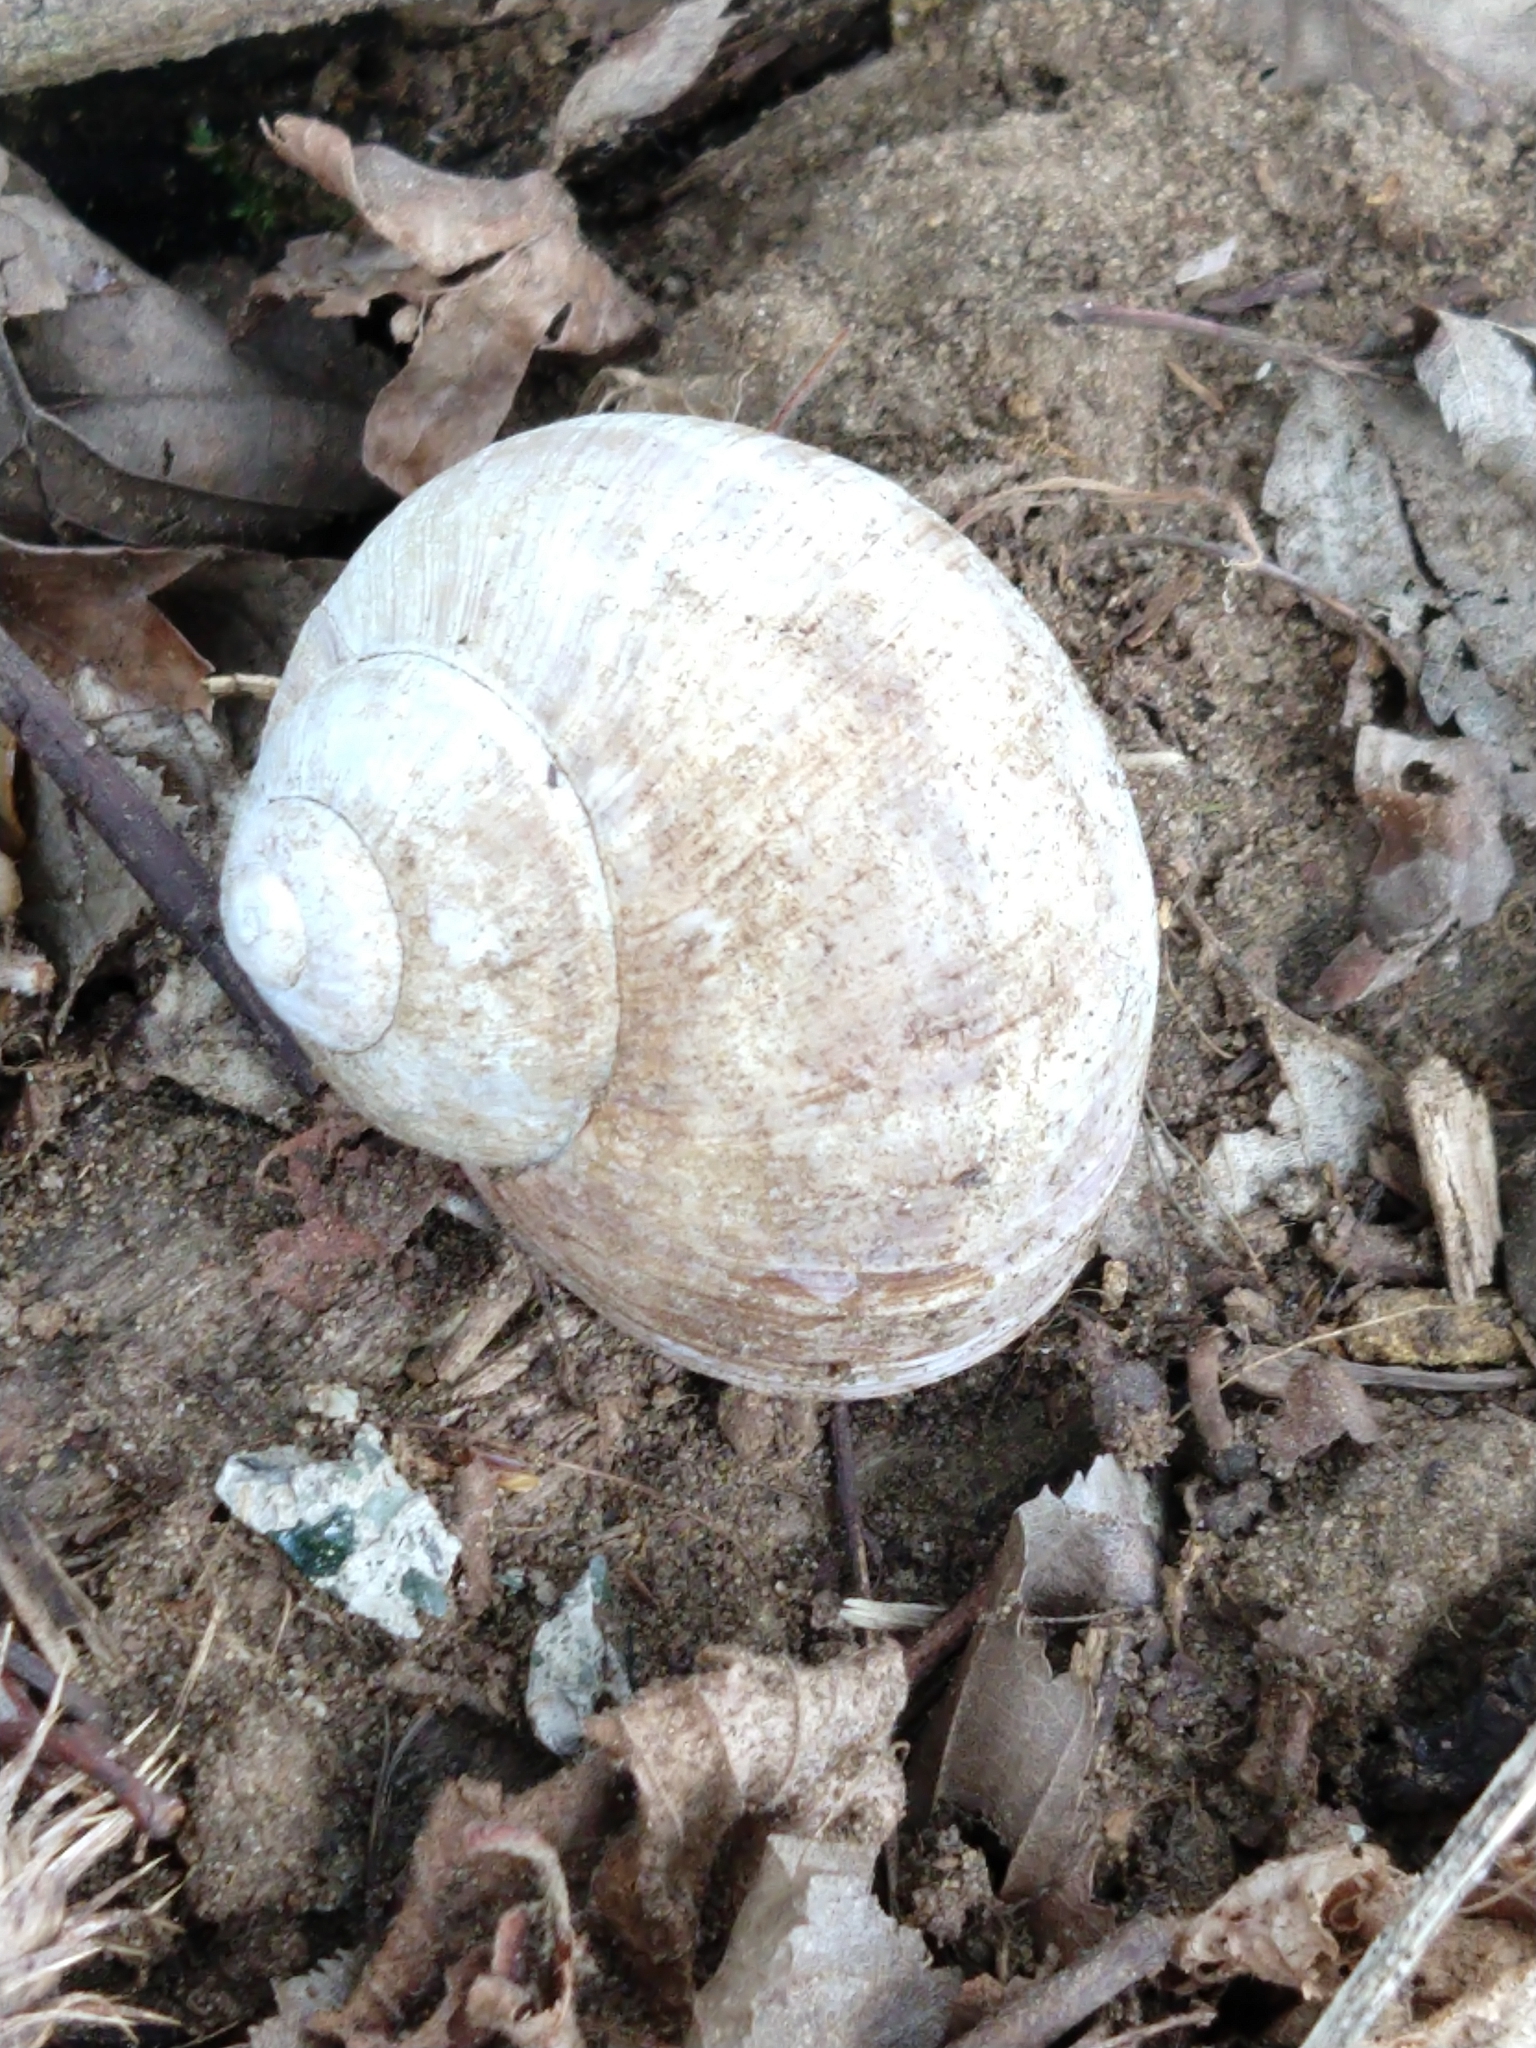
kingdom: Animalia
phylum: Mollusca
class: Gastropoda
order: Stylommatophora
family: Helicidae
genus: Helix
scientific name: Helix pomatia
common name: Roman snail
